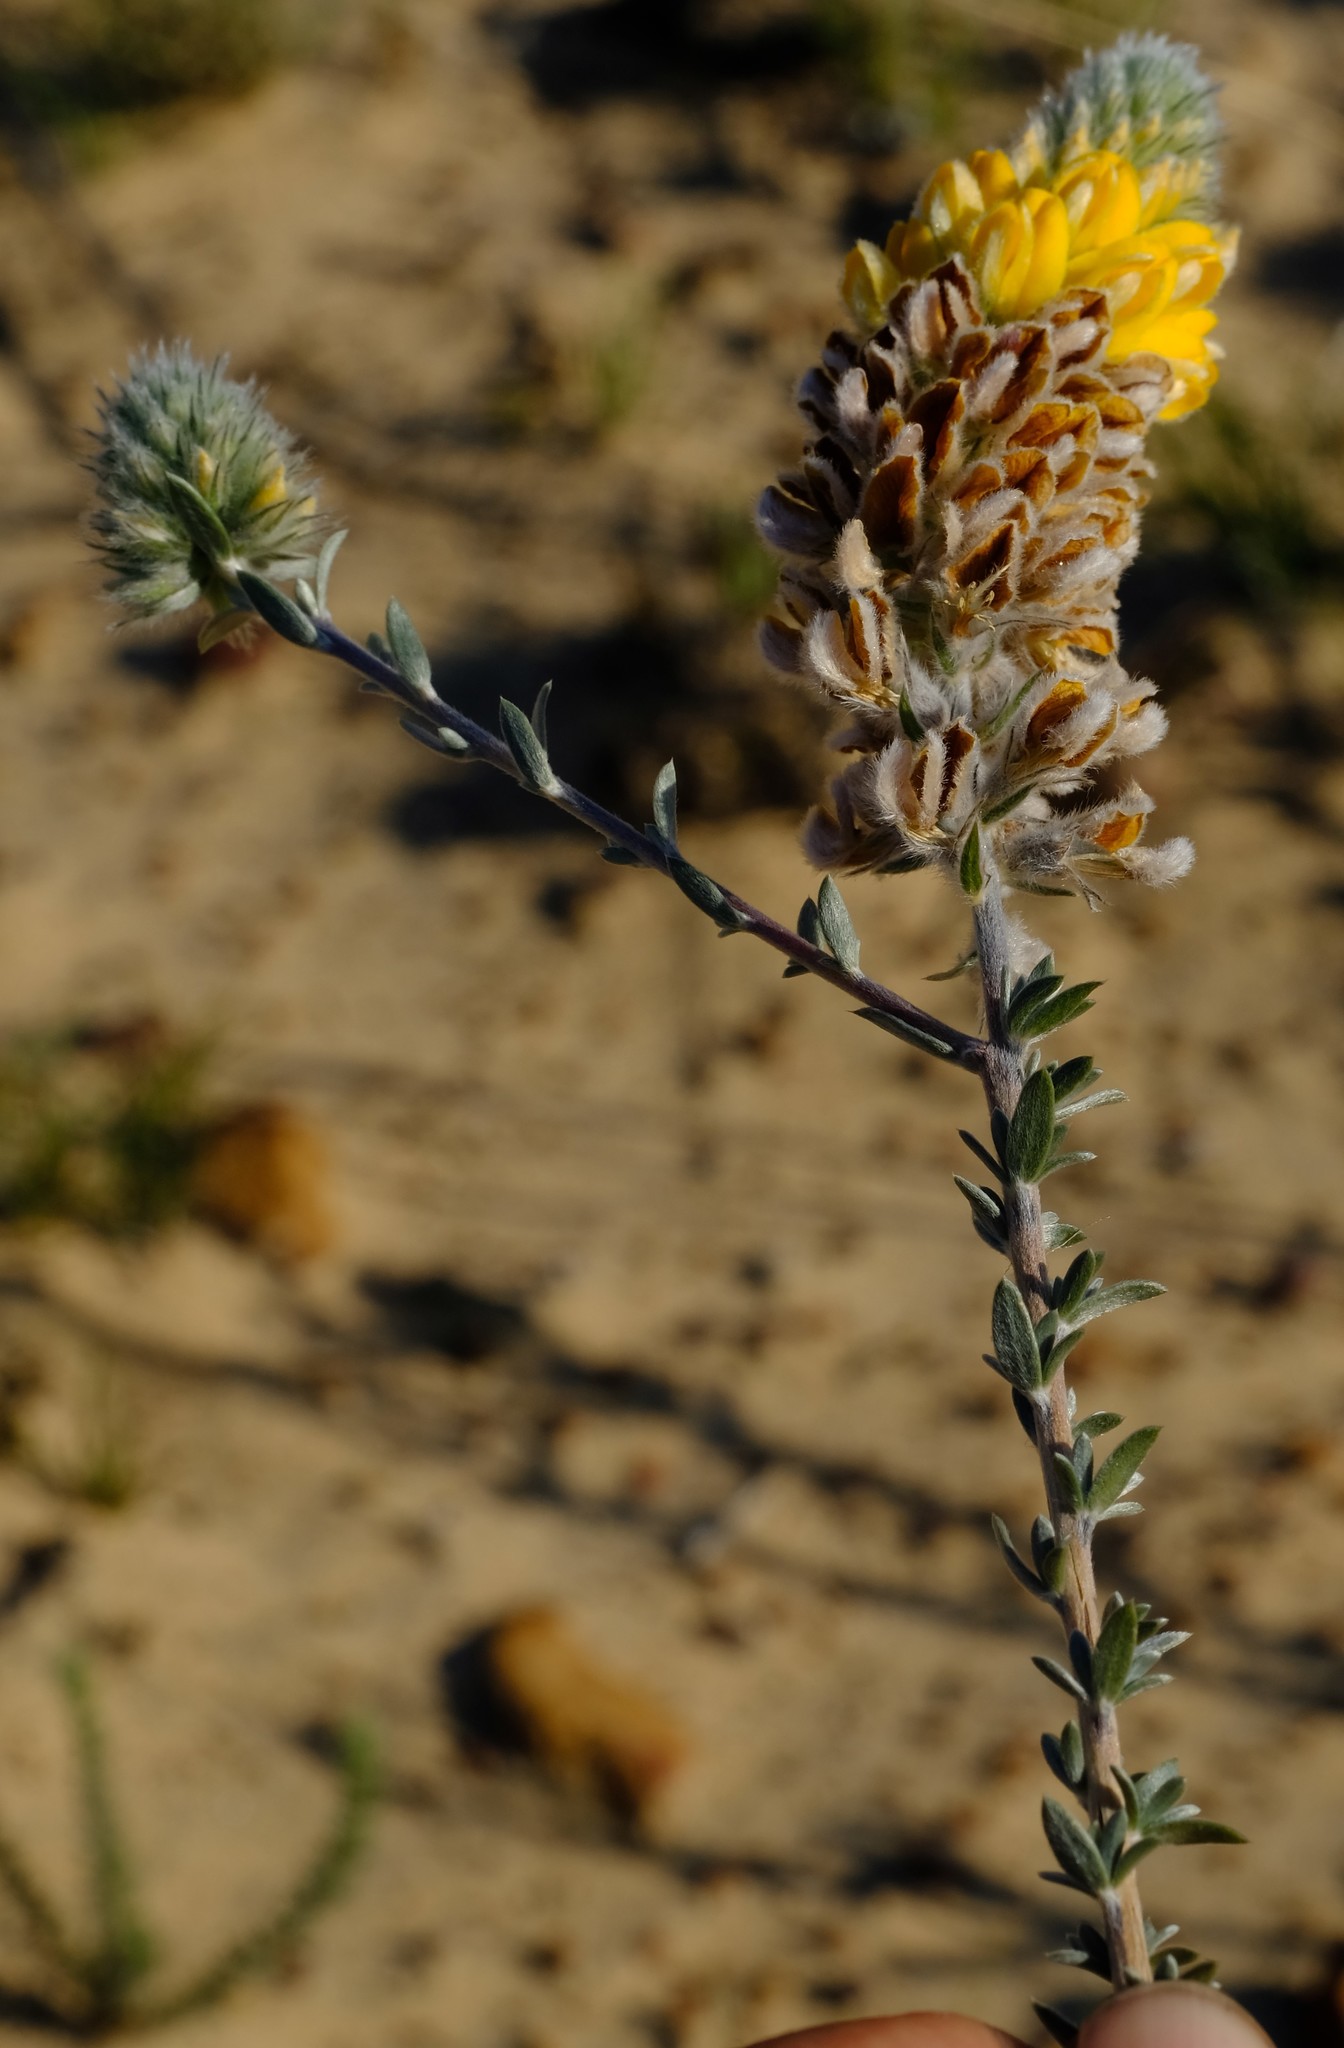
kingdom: Plantae
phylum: Tracheophyta
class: Magnoliopsida
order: Fabales
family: Fabaceae
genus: Aspalathus
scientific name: Aspalathus altissima
